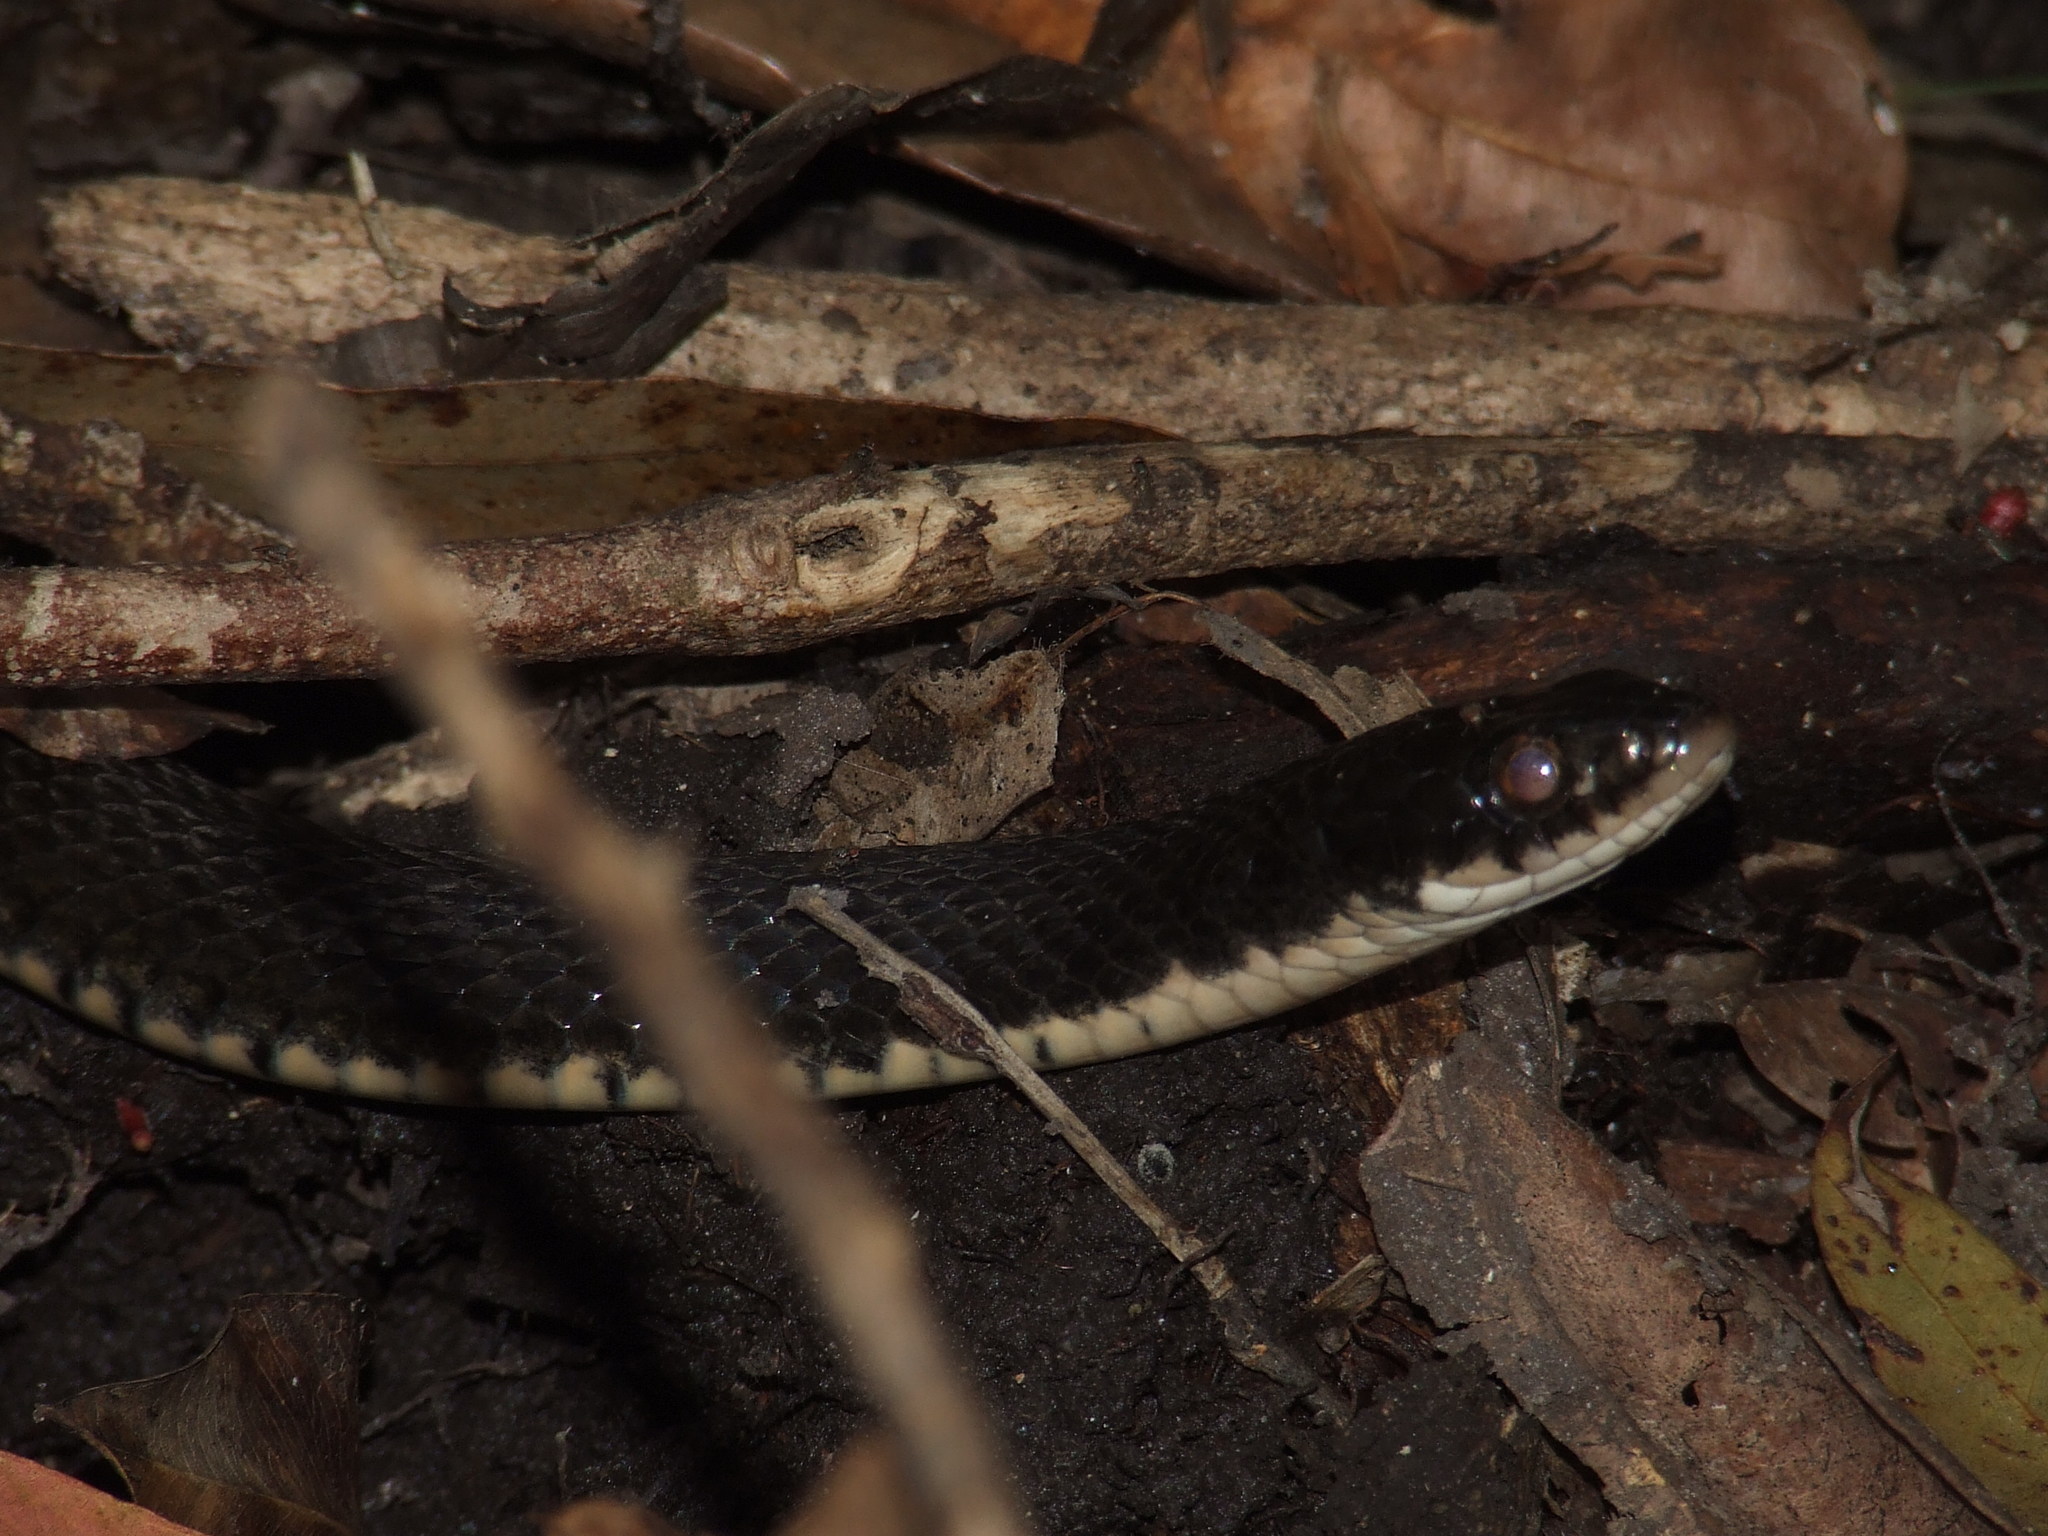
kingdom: Animalia
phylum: Chordata
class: Squamata
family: Colubridae
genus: Tropidonophis
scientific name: Tropidonophis mairii
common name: Common keelback
